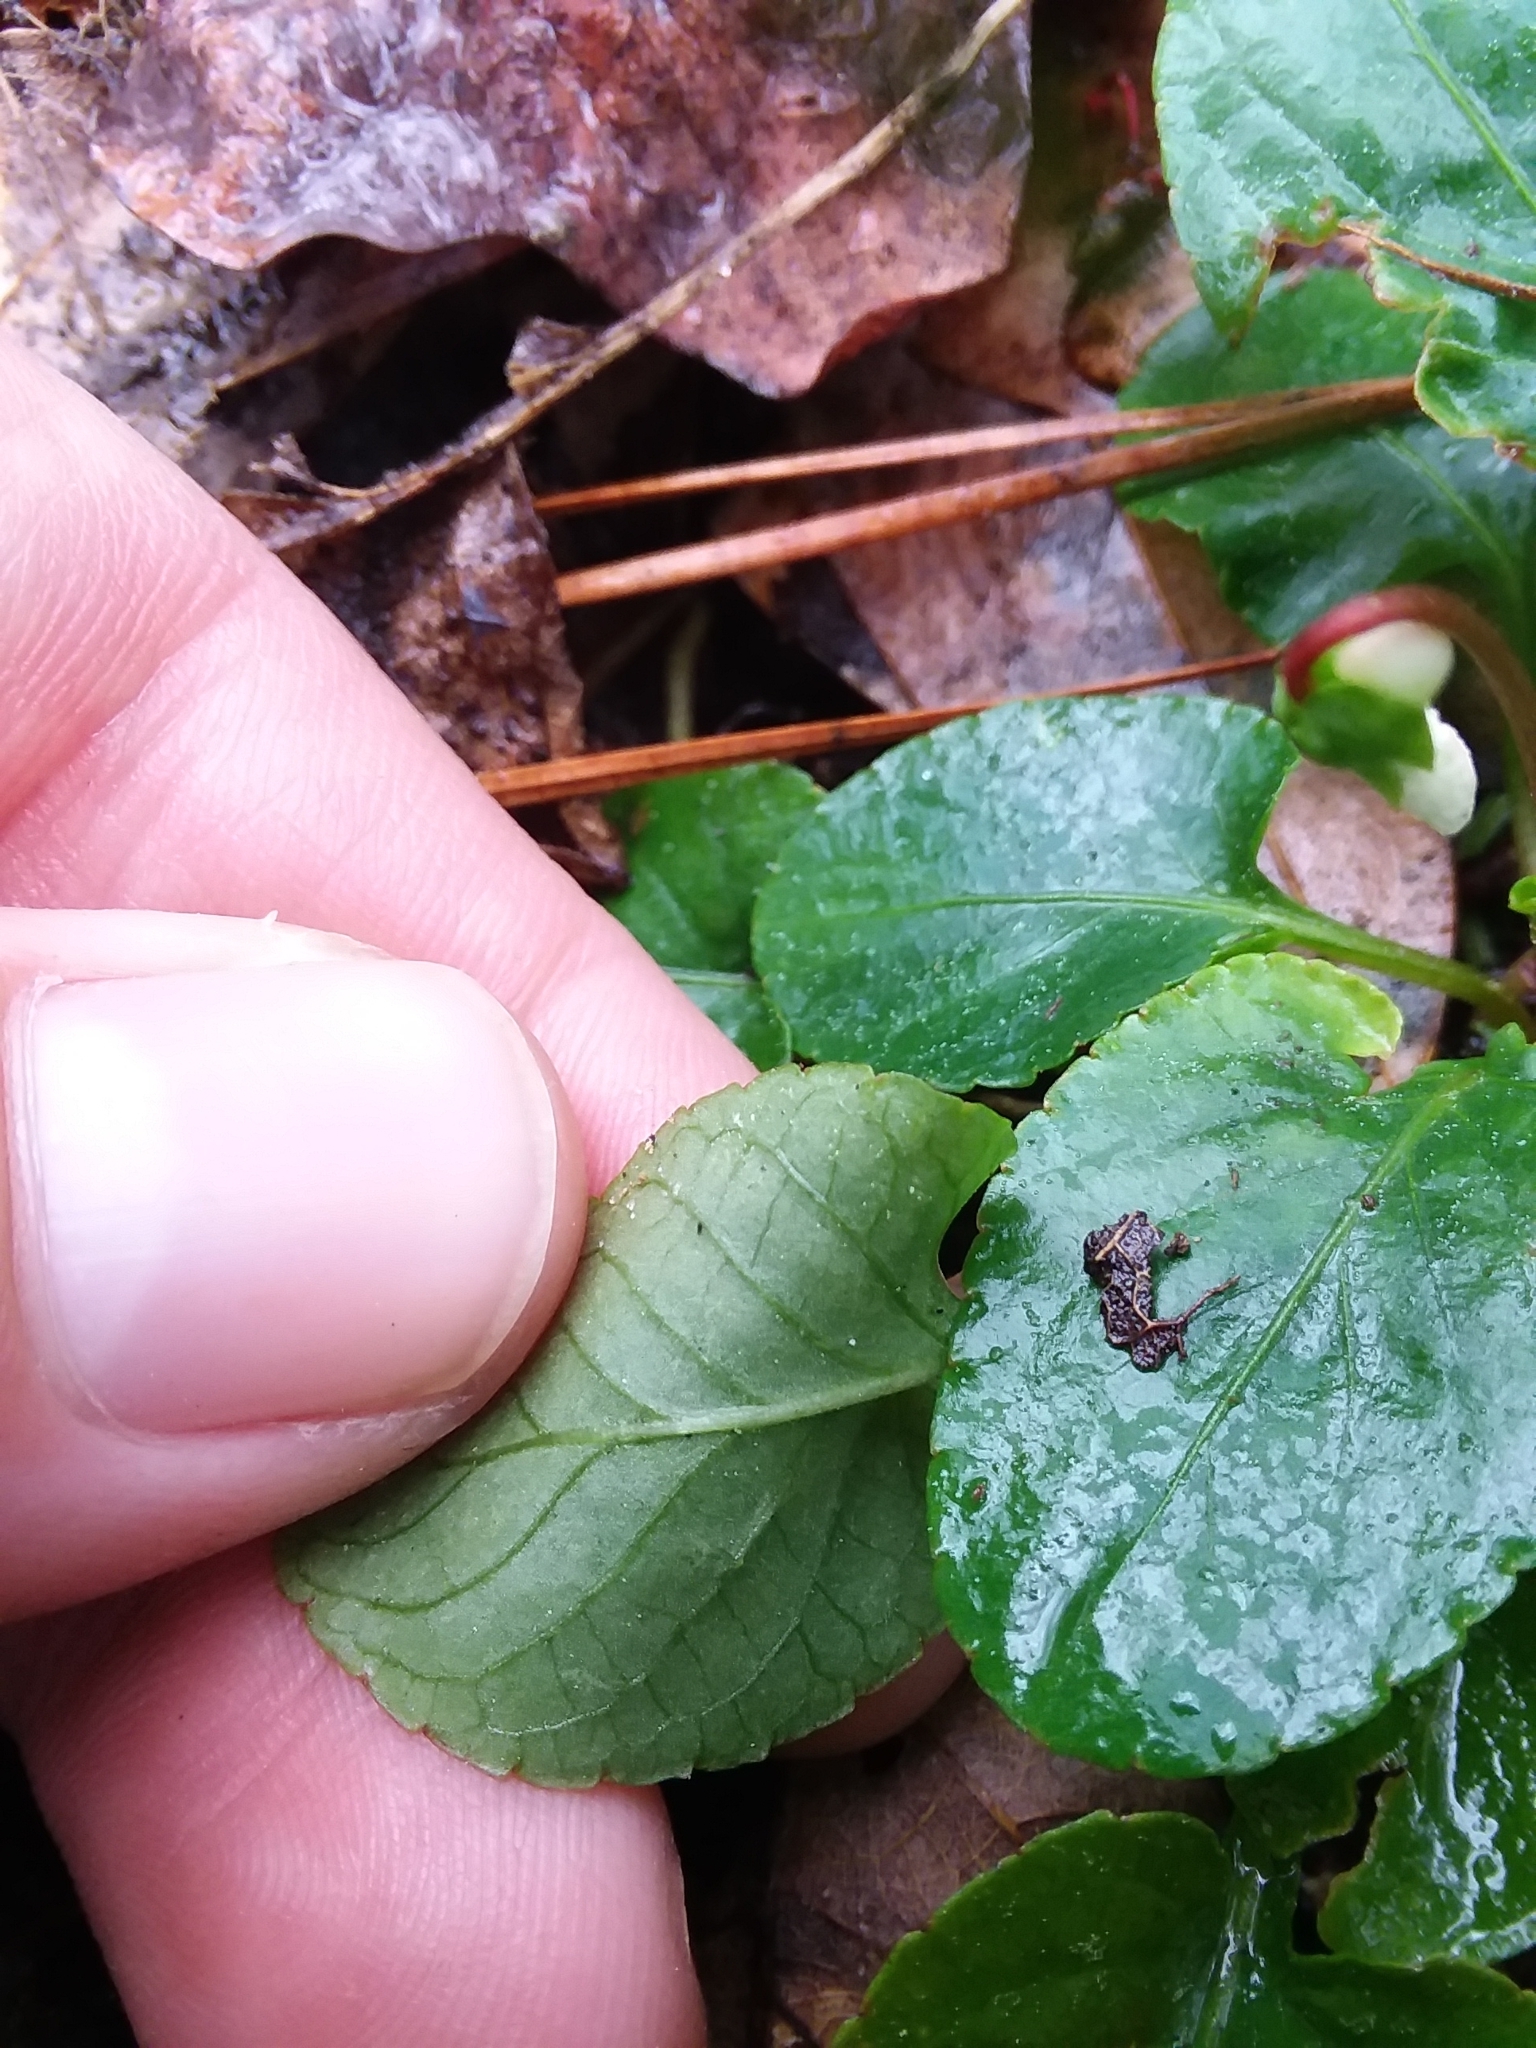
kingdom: Plantae
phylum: Tracheophyta
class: Magnoliopsida
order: Malpighiales
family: Violaceae
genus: Viola
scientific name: Viola primulifolia
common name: Primrose-leaf violet
